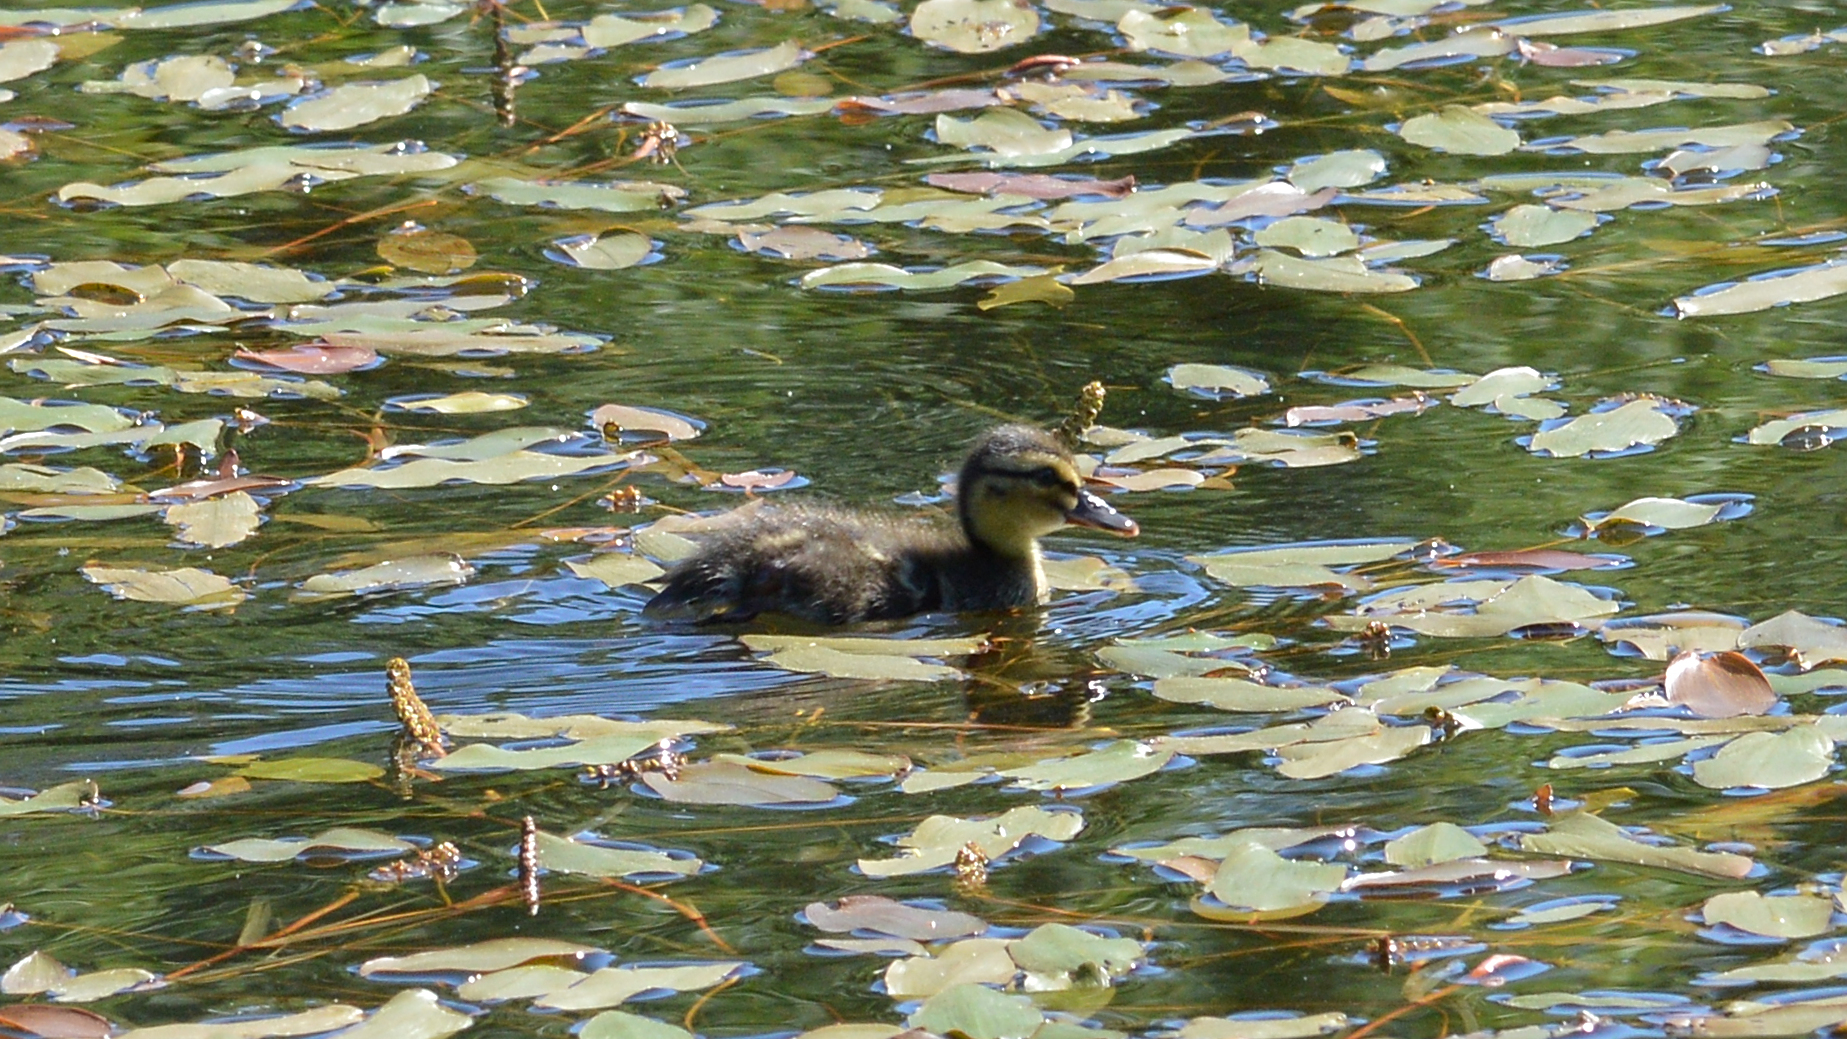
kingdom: Animalia
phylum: Chordata
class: Aves
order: Anseriformes
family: Anatidae
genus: Anas
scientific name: Anas platyrhynchos
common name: Mallard
